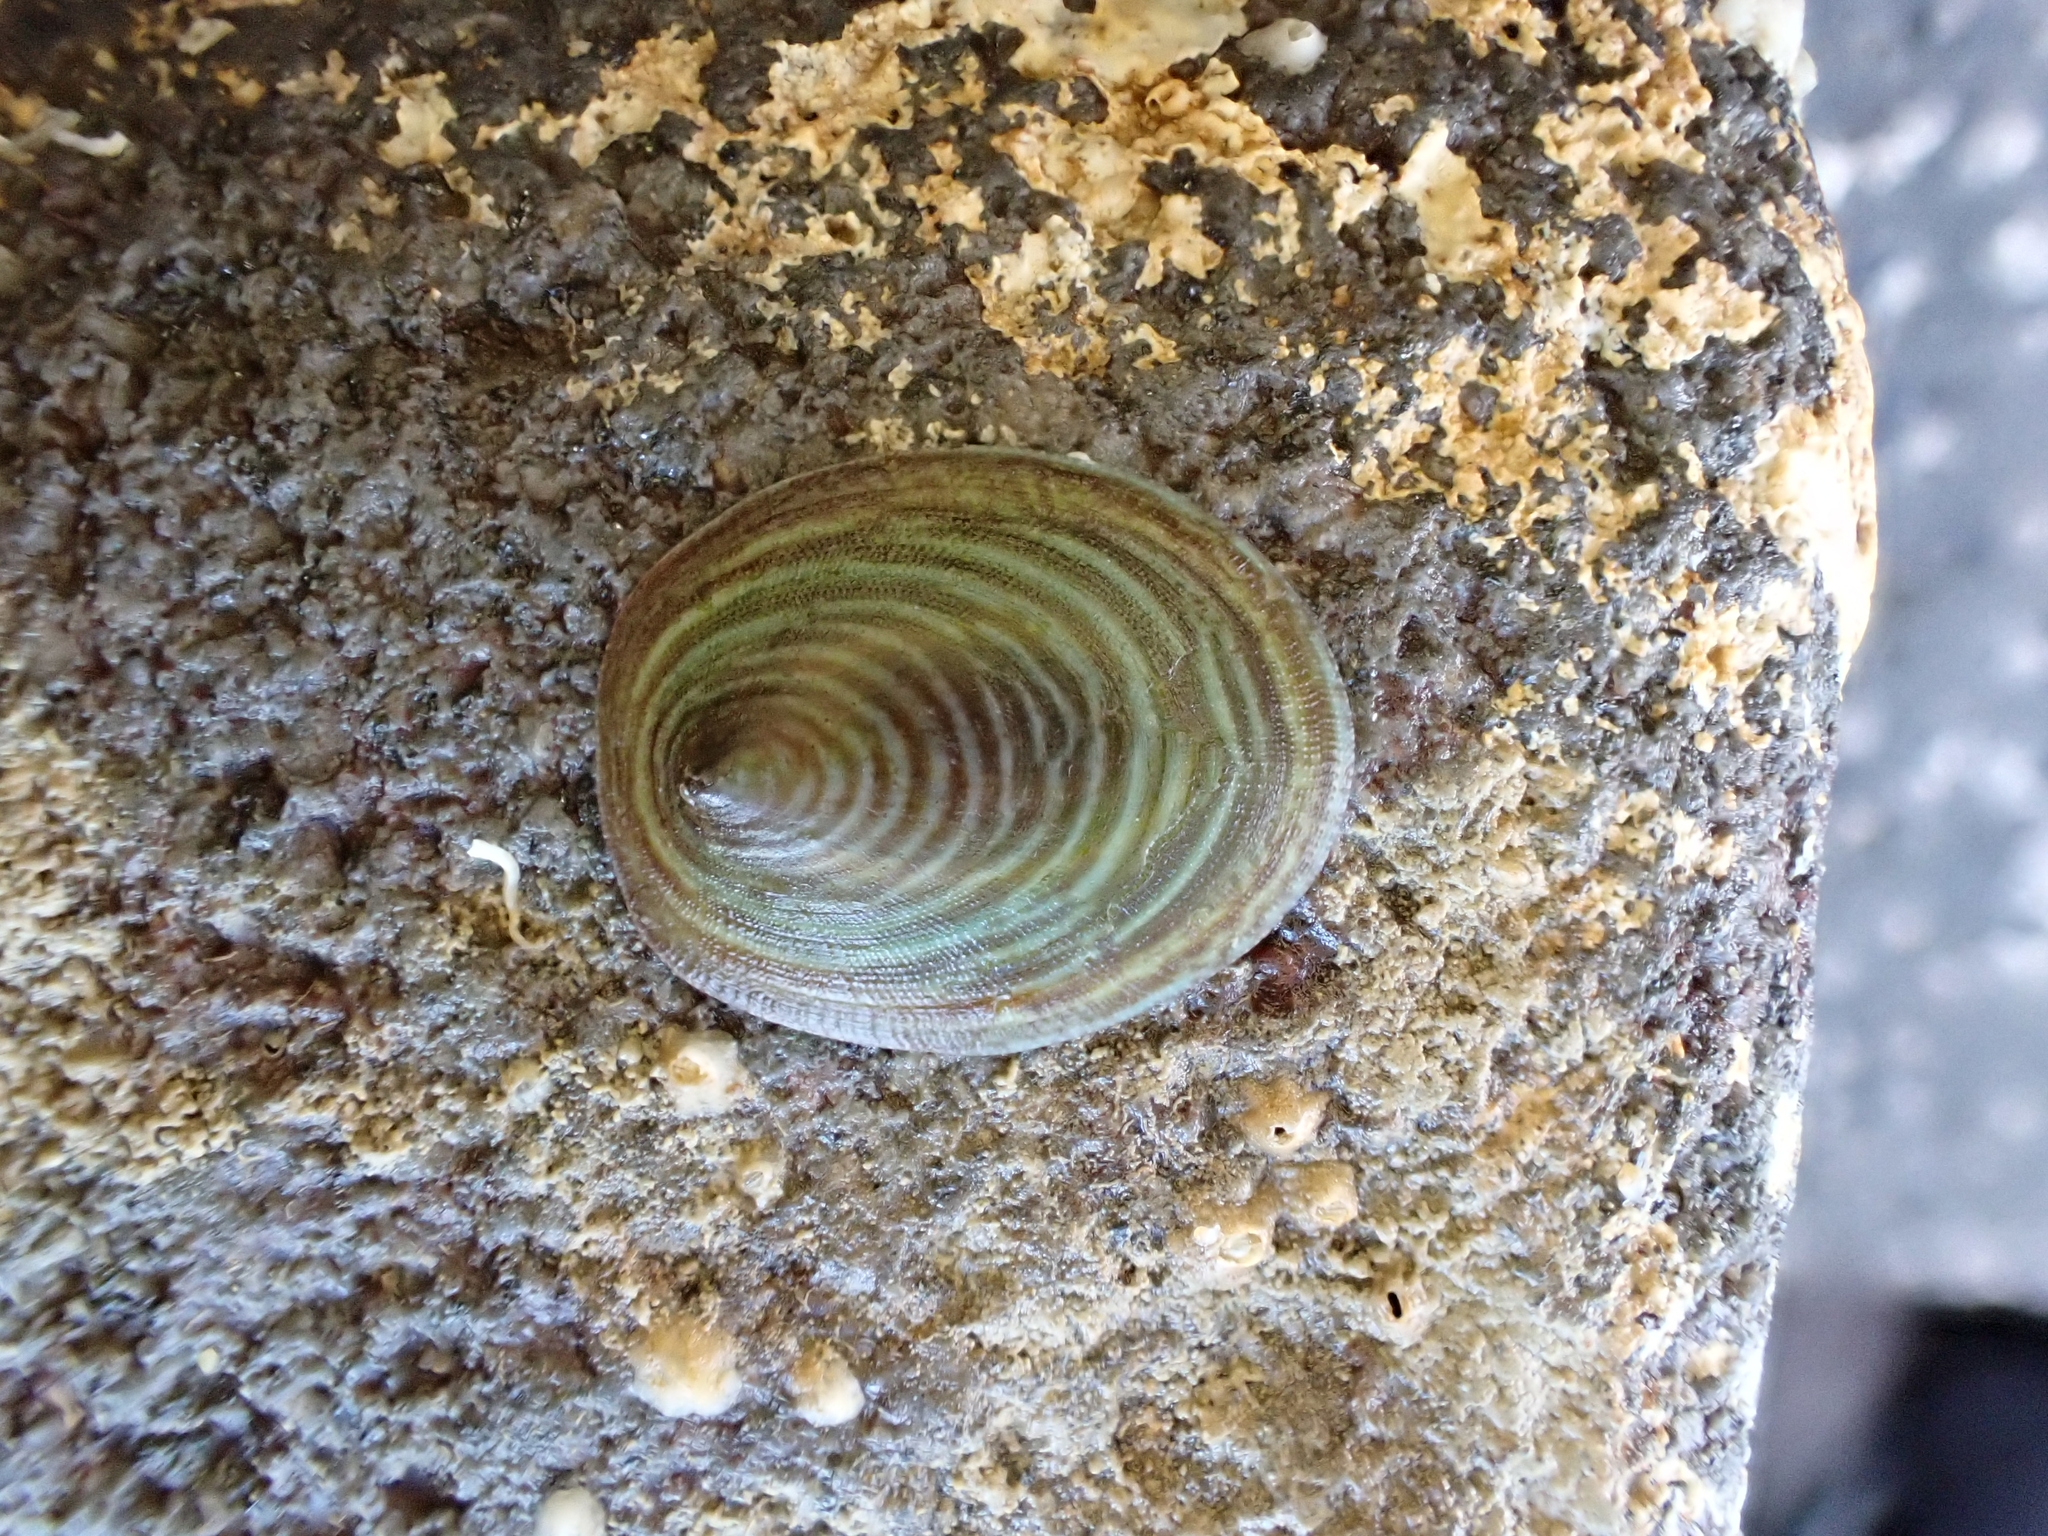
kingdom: Animalia
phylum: Mollusca
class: Gastropoda
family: Lottiidae
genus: Atalacmea
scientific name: Atalacmea fragilis
